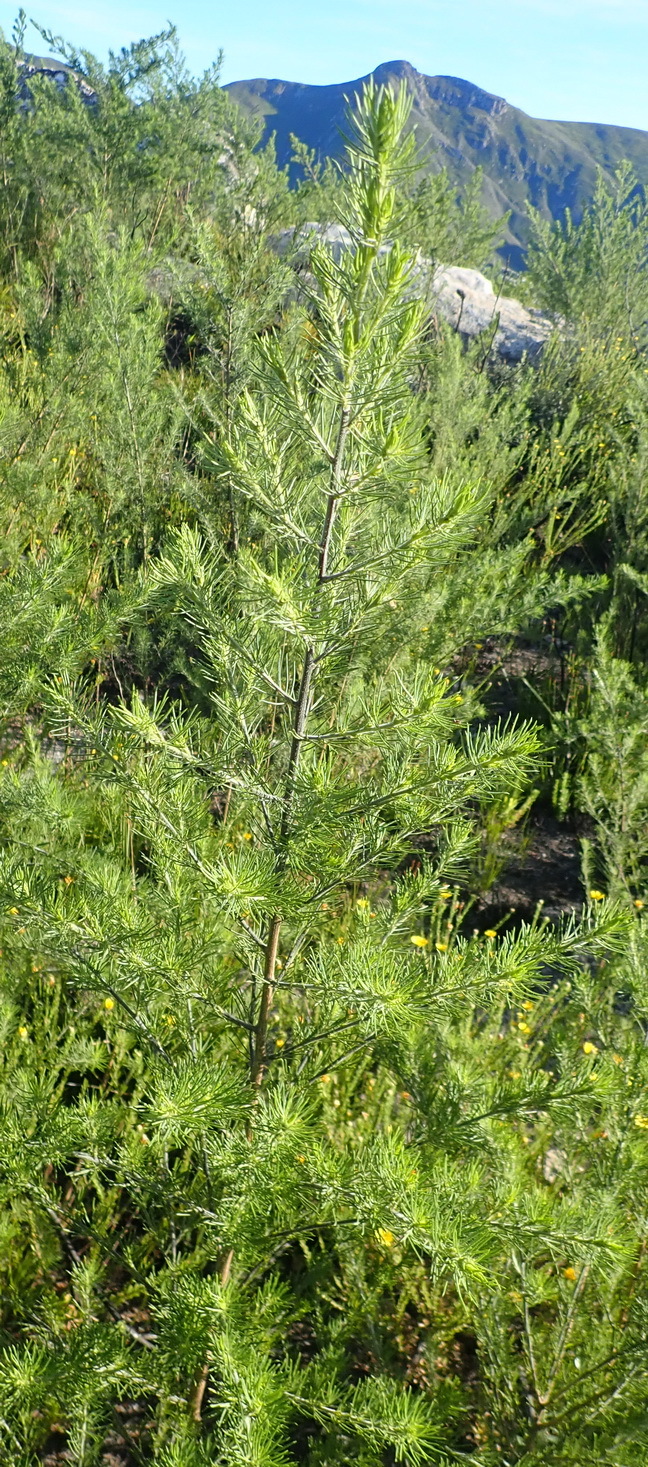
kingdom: Plantae
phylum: Tracheophyta
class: Magnoliopsida
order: Fabales
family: Fabaceae
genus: Psoralea
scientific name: Psoralea floccosa
